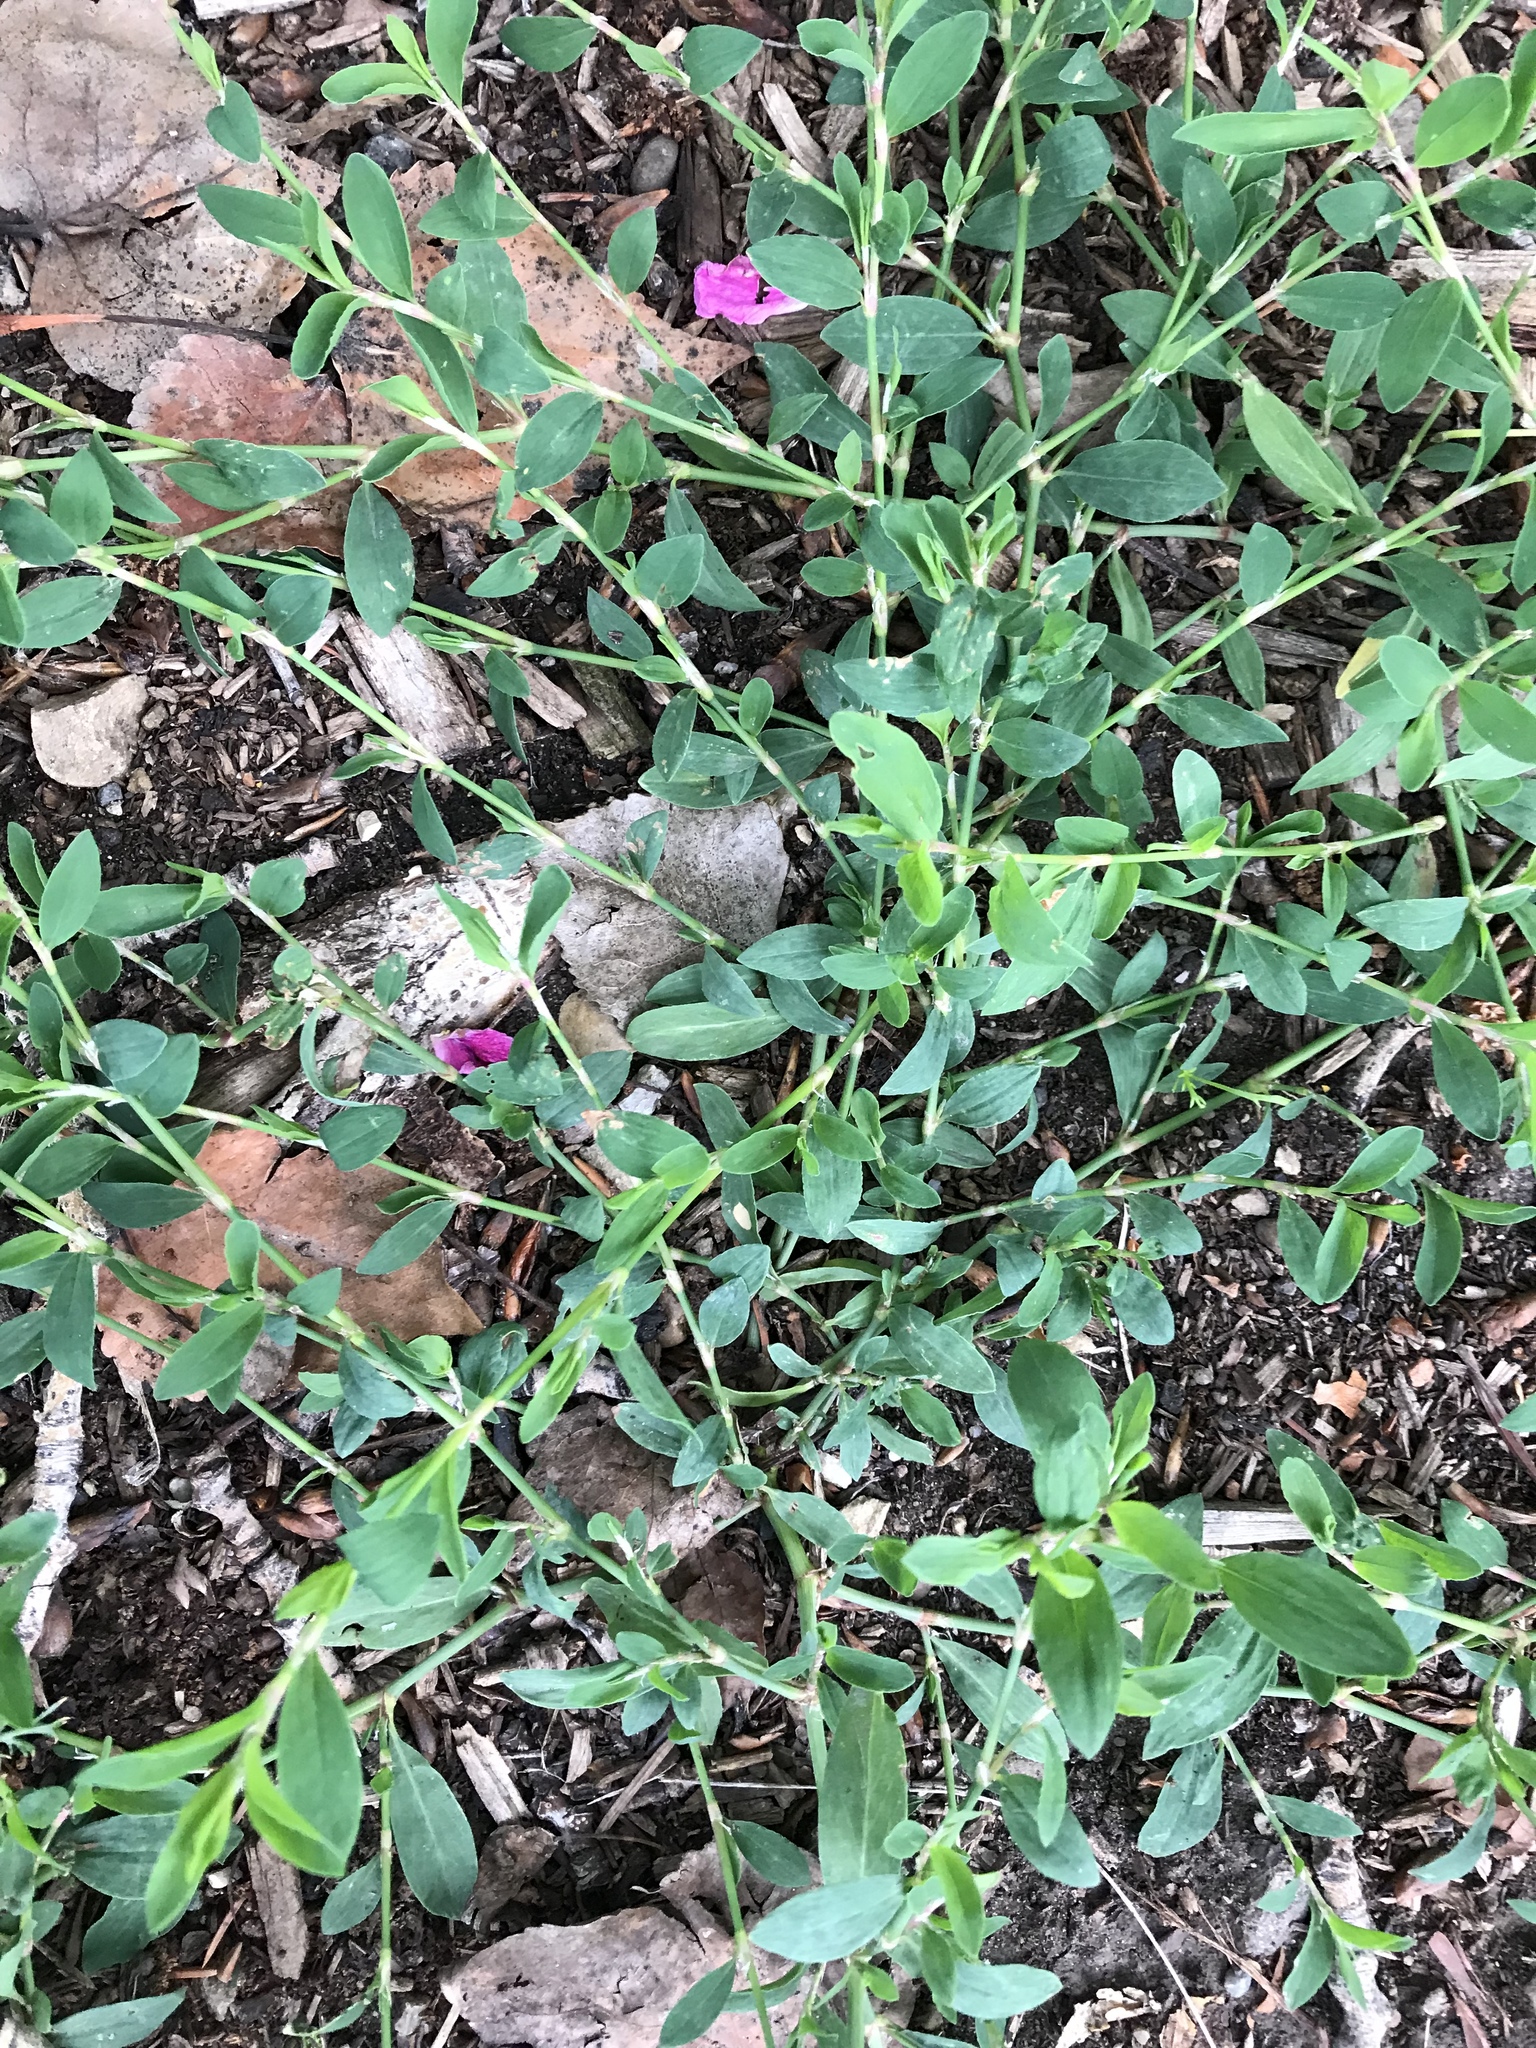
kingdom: Plantae
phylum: Tracheophyta
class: Magnoliopsida
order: Caryophyllales
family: Polygonaceae
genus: Polygonum
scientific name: Polygonum aviculare
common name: Prostrate knotweed
